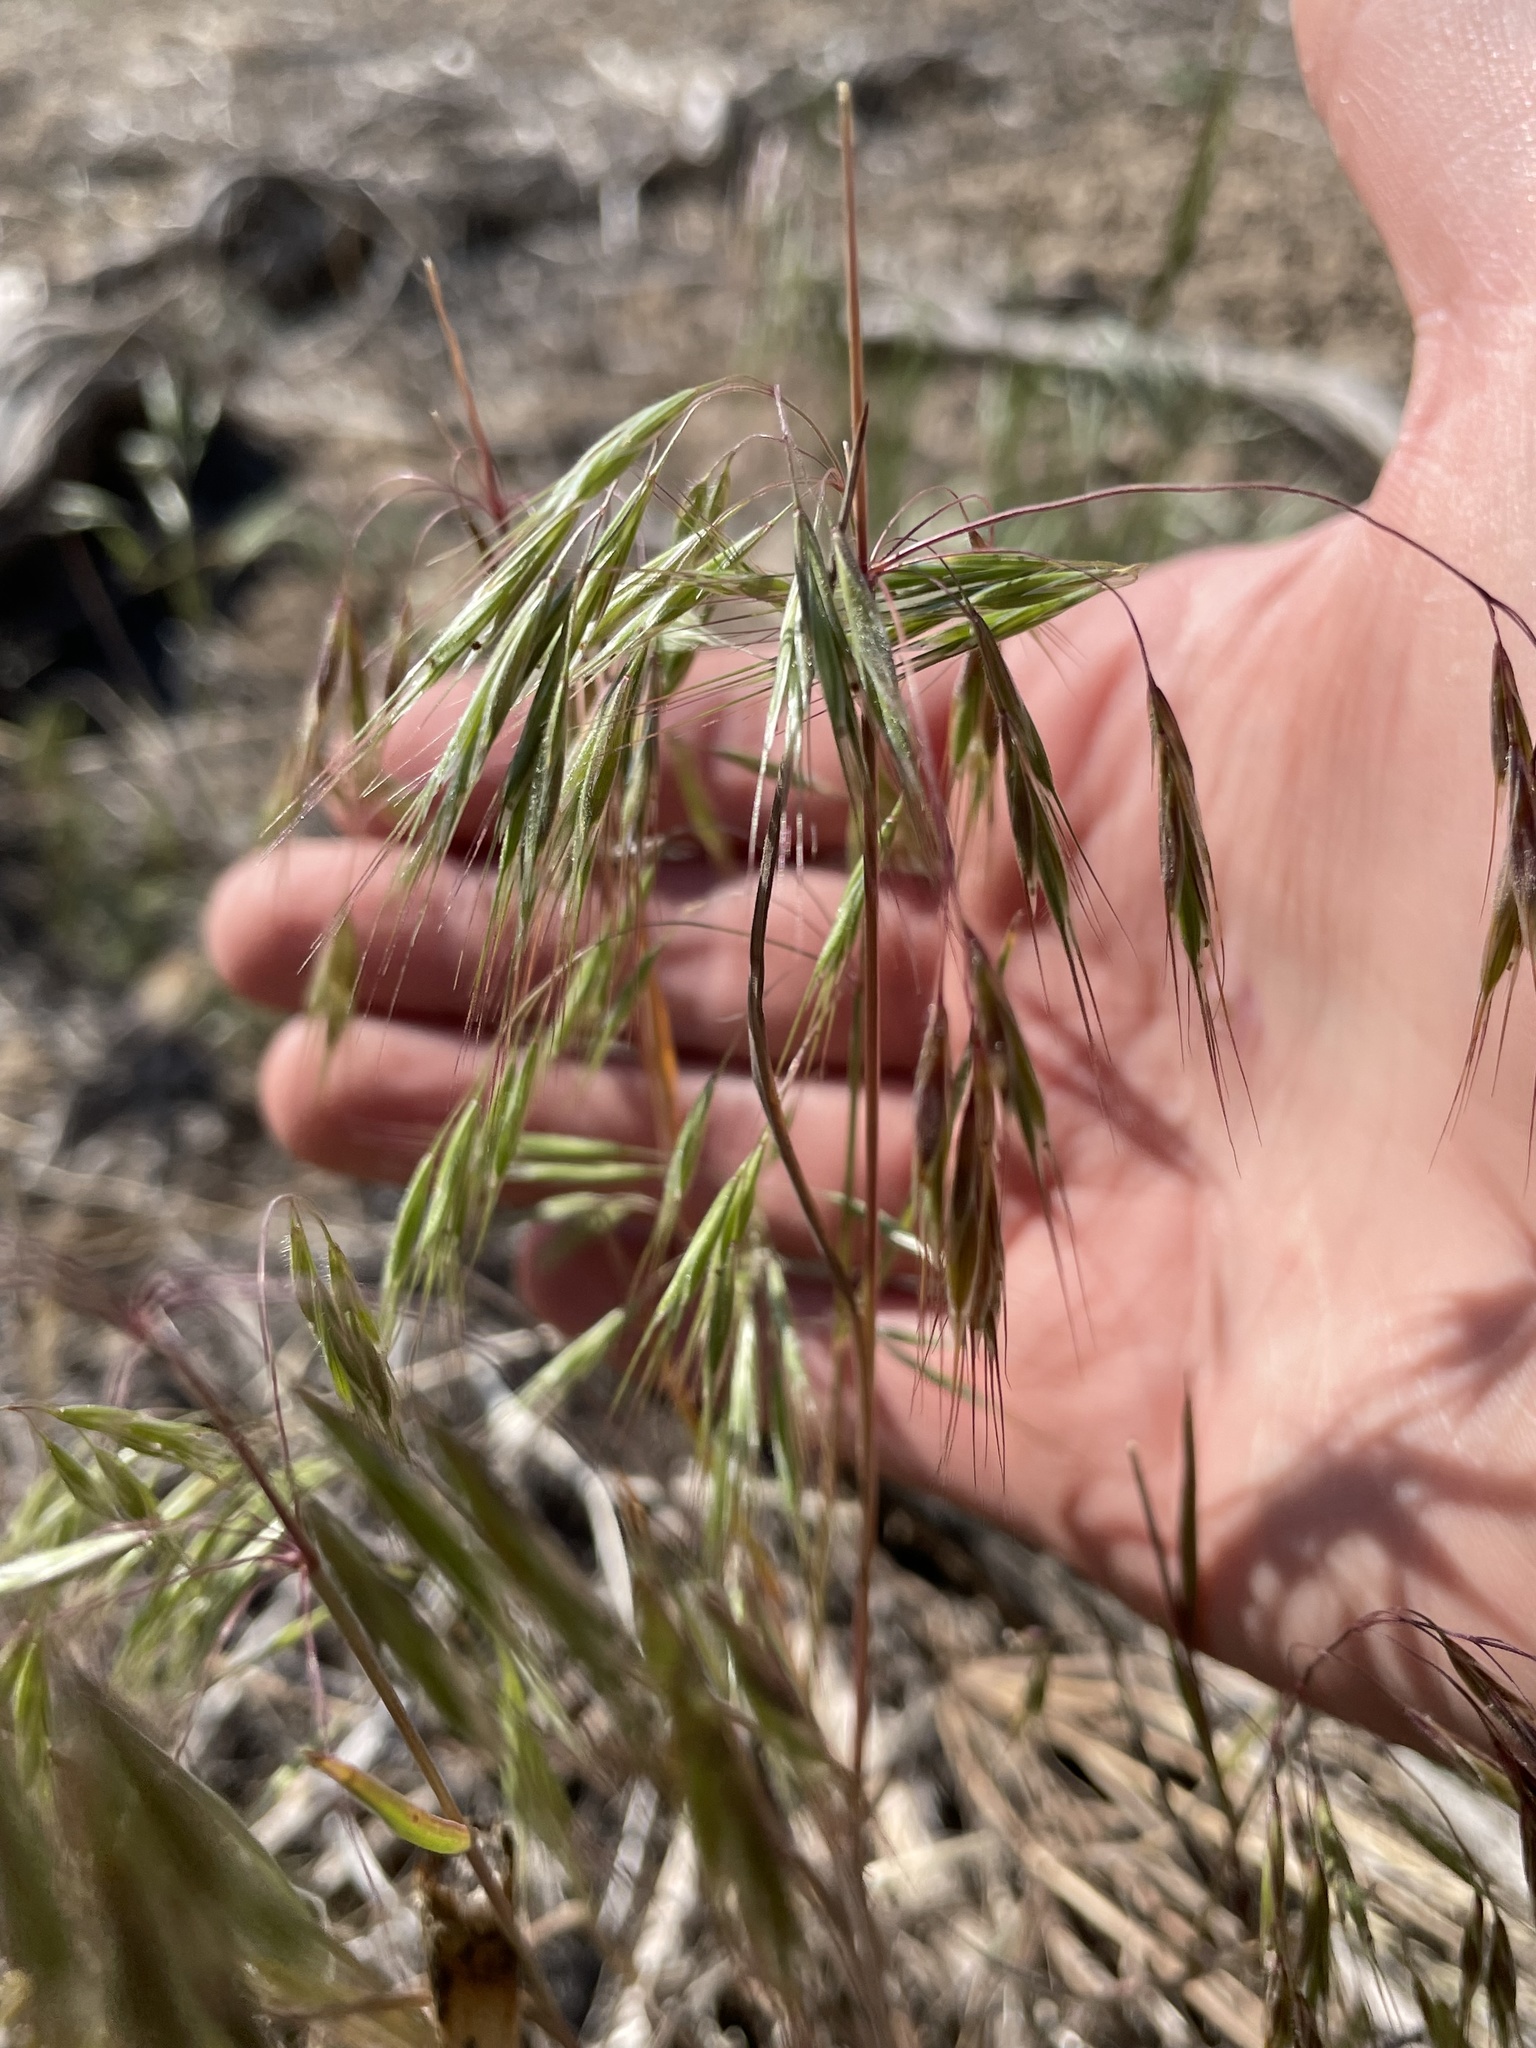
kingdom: Plantae
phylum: Tracheophyta
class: Liliopsida
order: Poales
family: Poaceae
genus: Bromus
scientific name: Bromus tectorum
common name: Cheatgrass
